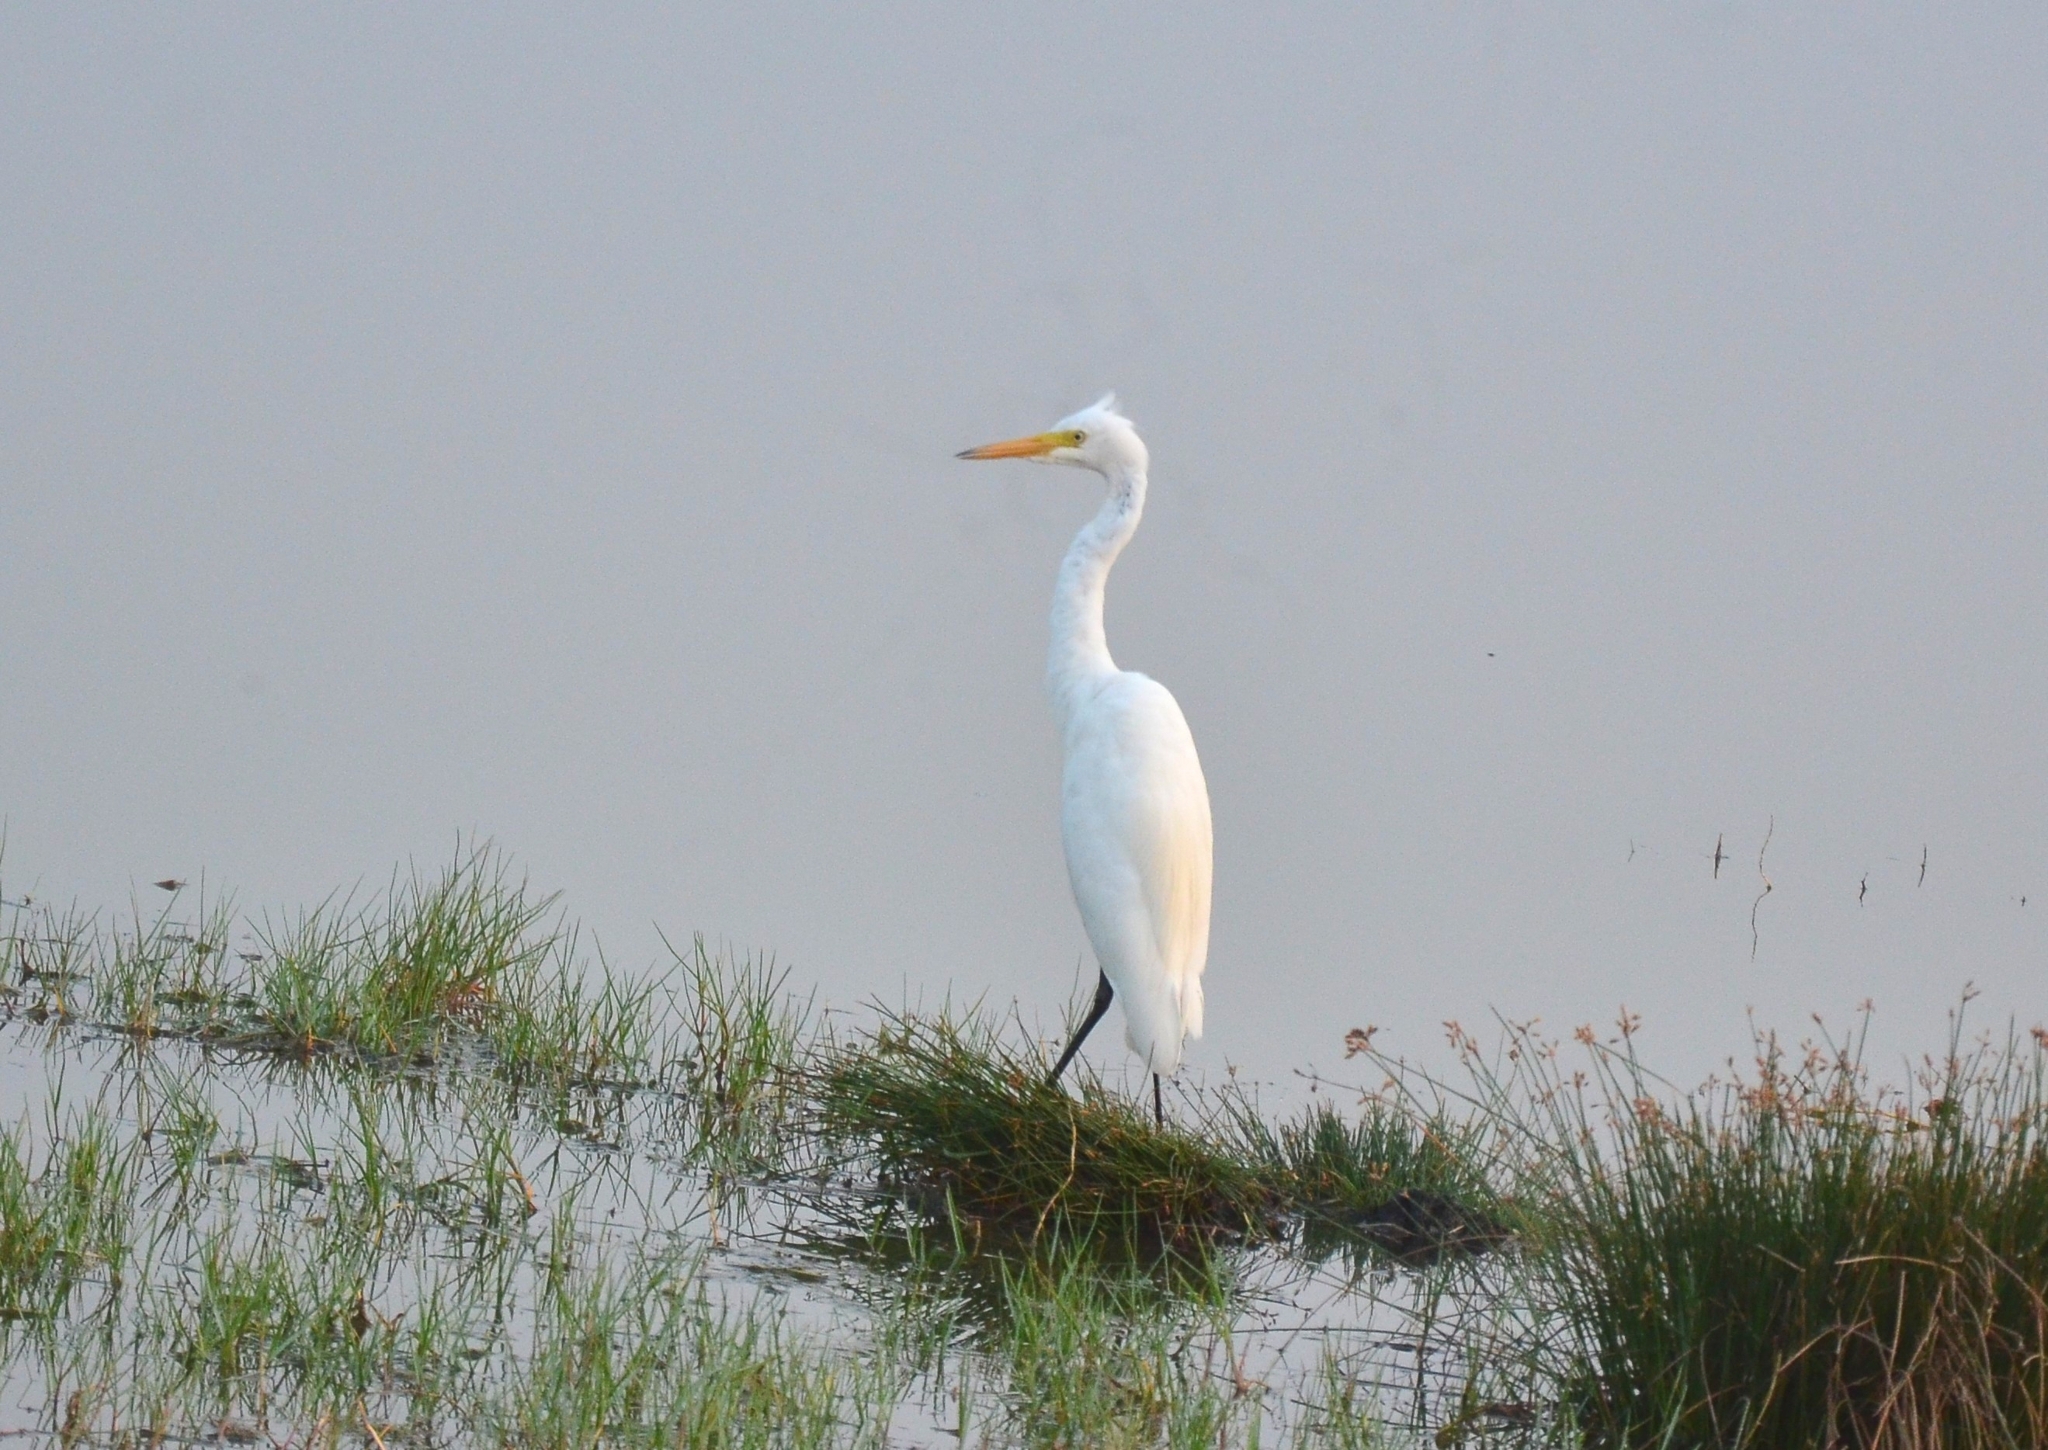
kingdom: Animalia
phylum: Chordata
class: Aves
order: Pelecaniformes
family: Ardeidae
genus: Egretta
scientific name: Egretta intermedia
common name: Intermediate egret
